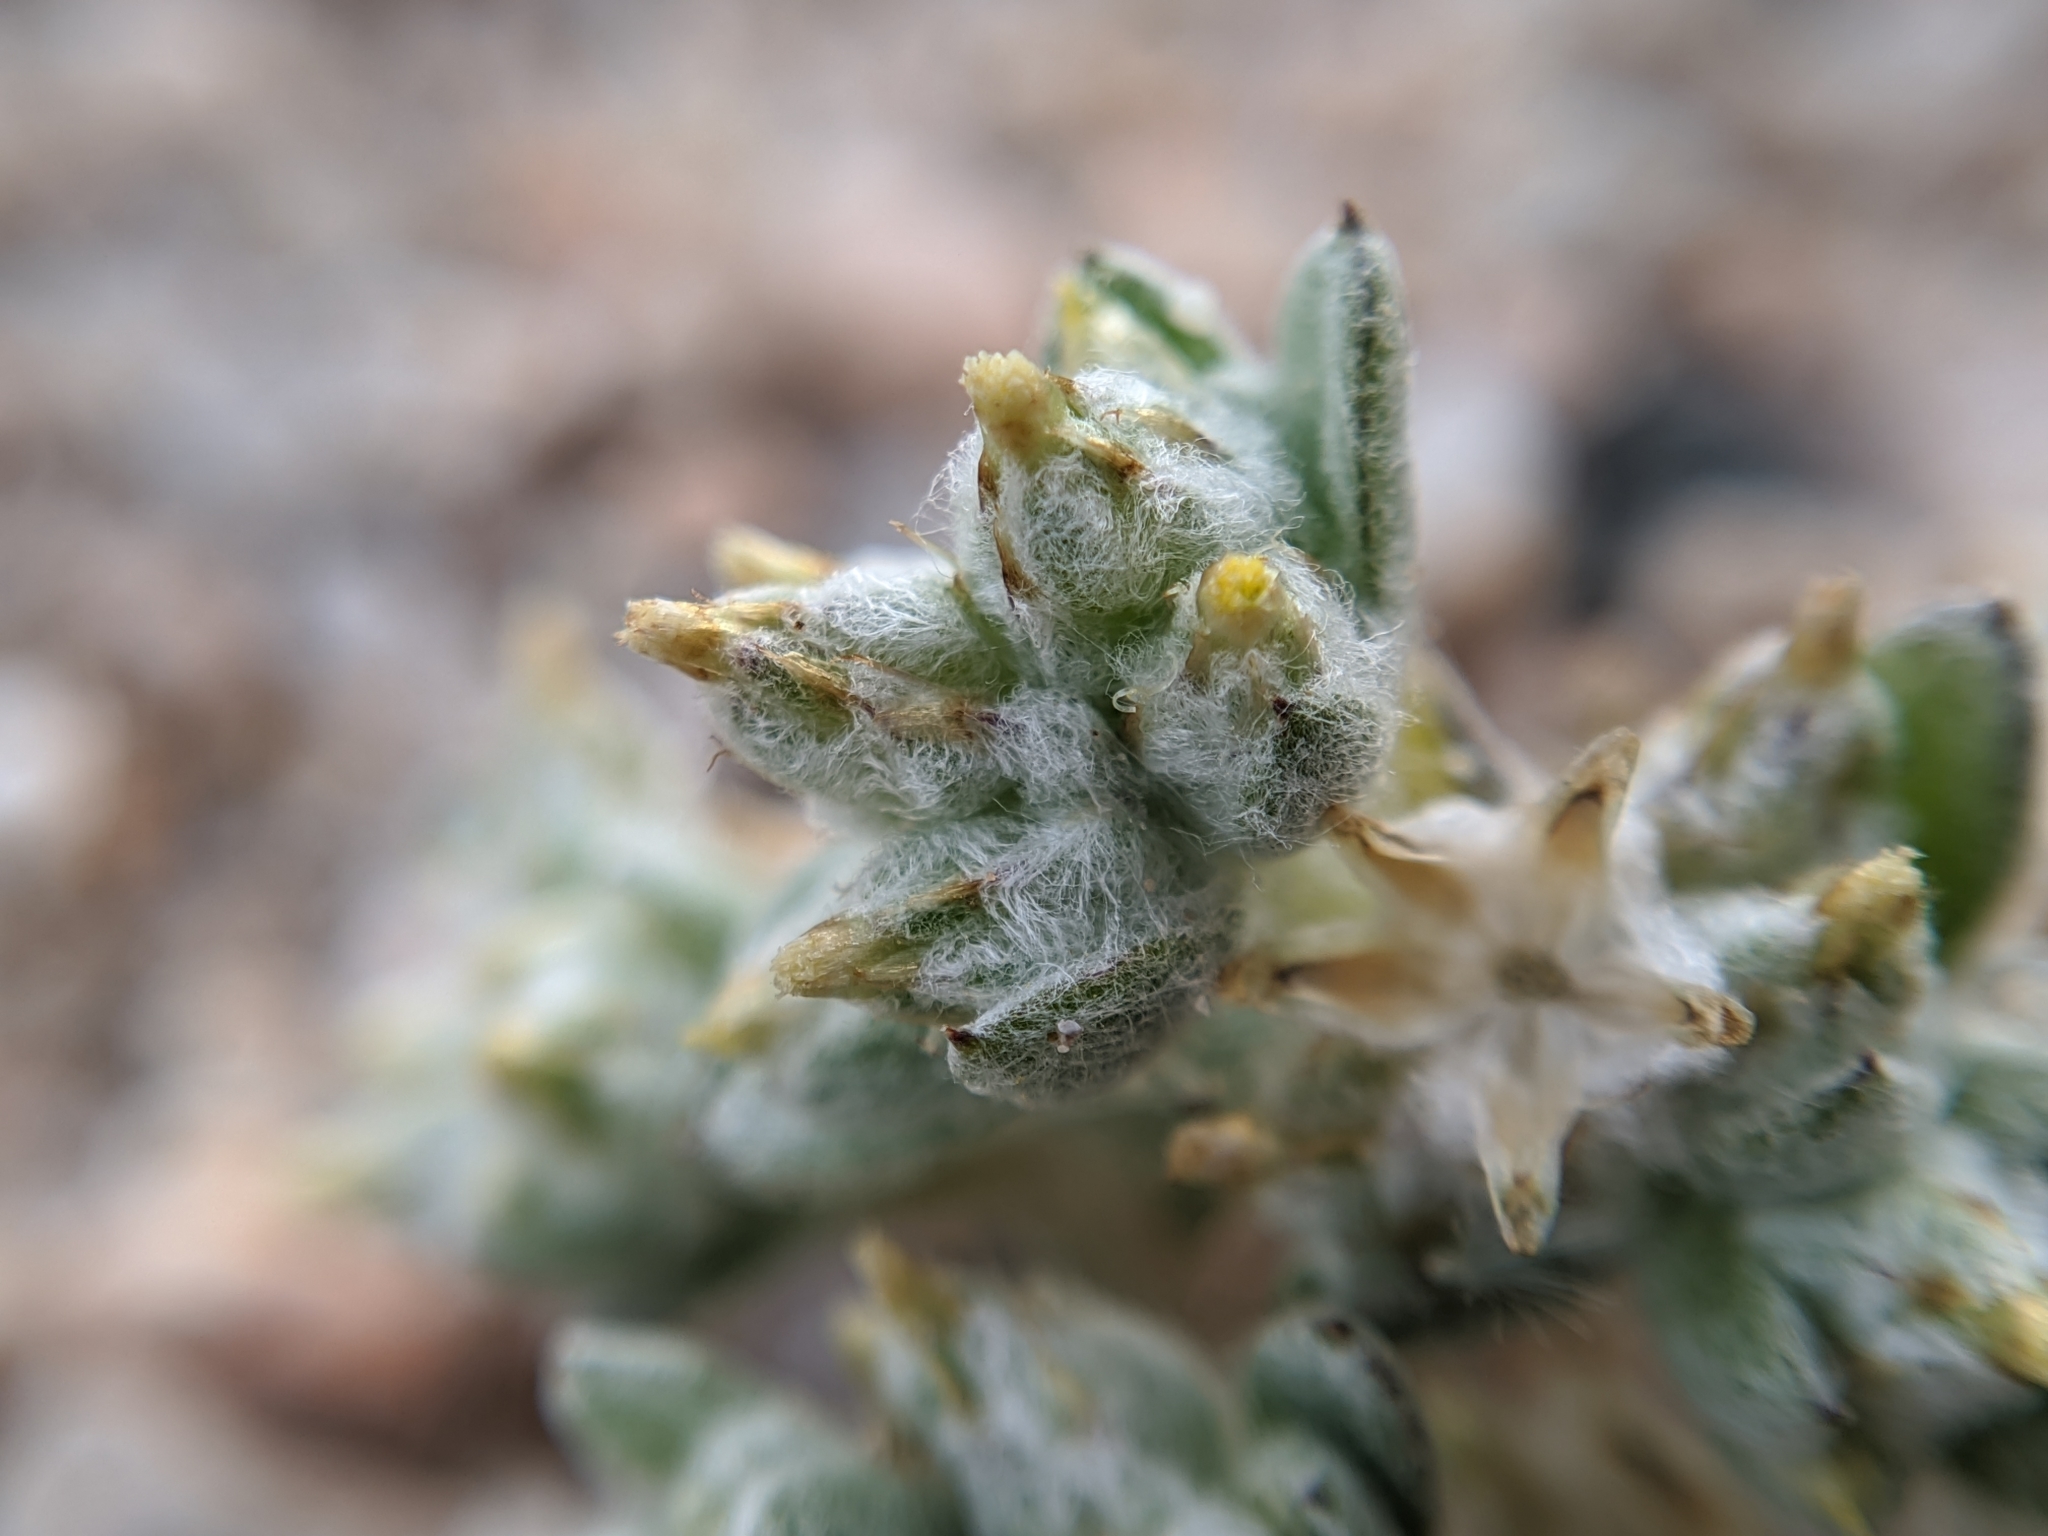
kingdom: Plantae
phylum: Tracheophyta
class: Magnoliopsida
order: Asterales
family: Asteraceae
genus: Logfia
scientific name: Logfia depressa
